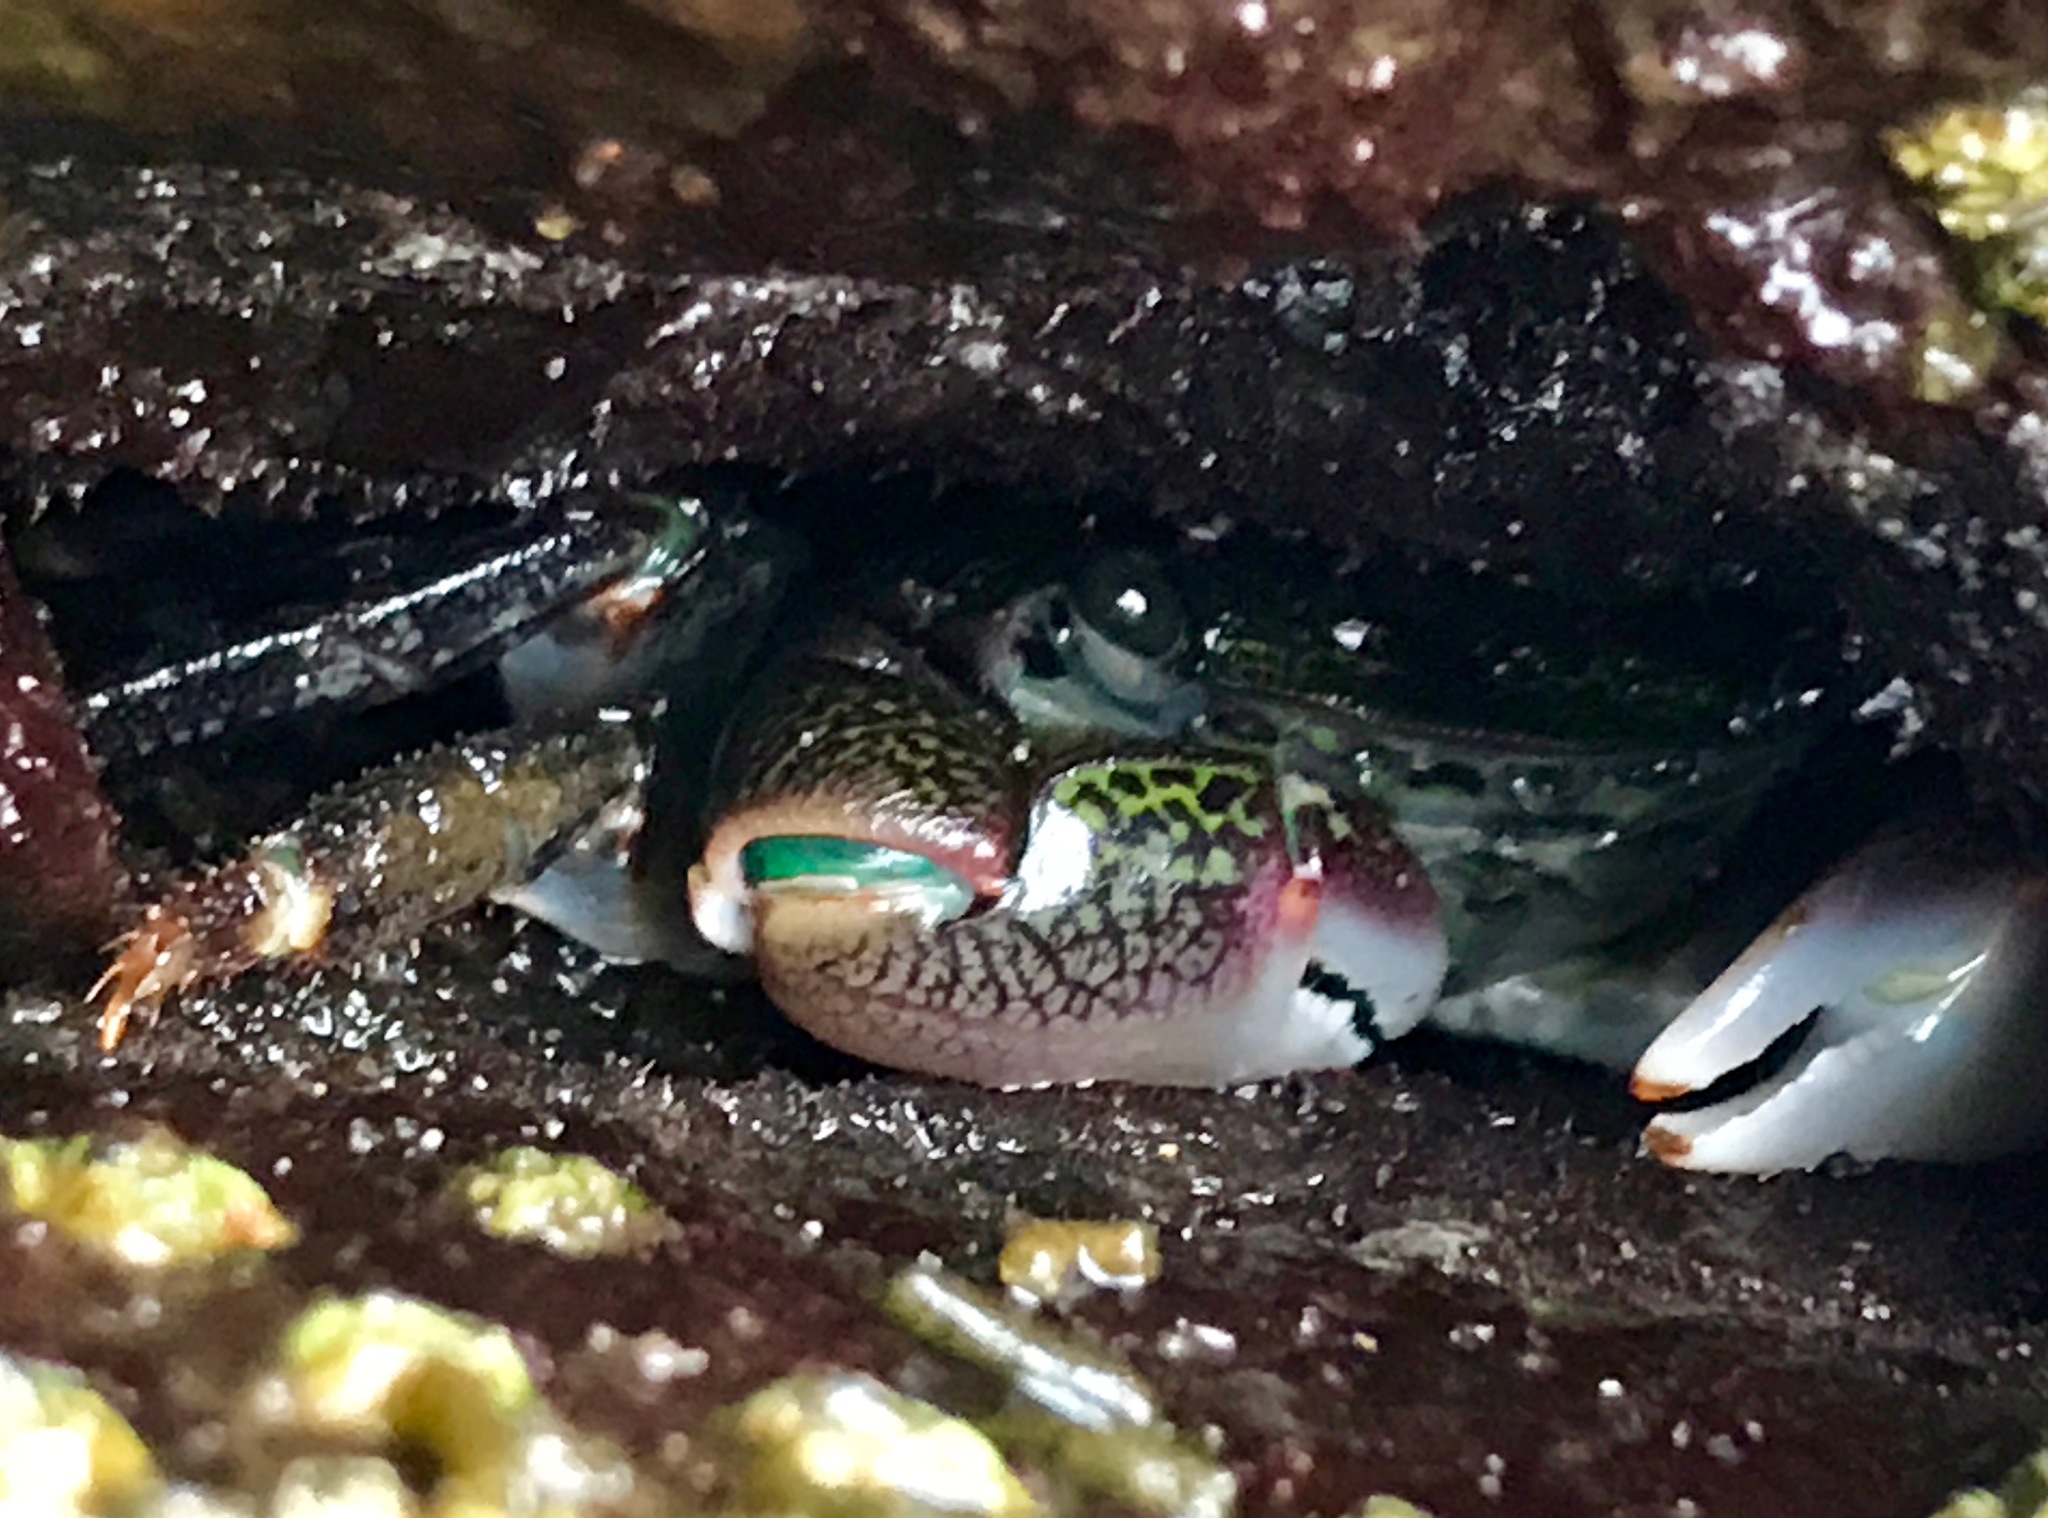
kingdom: Animalia
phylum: Arthropoda
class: Malacostraca
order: Decapoda
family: Grapsidae
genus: Pachygrapsus
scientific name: Pachygrapsus crassipes
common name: Striped shore crab
